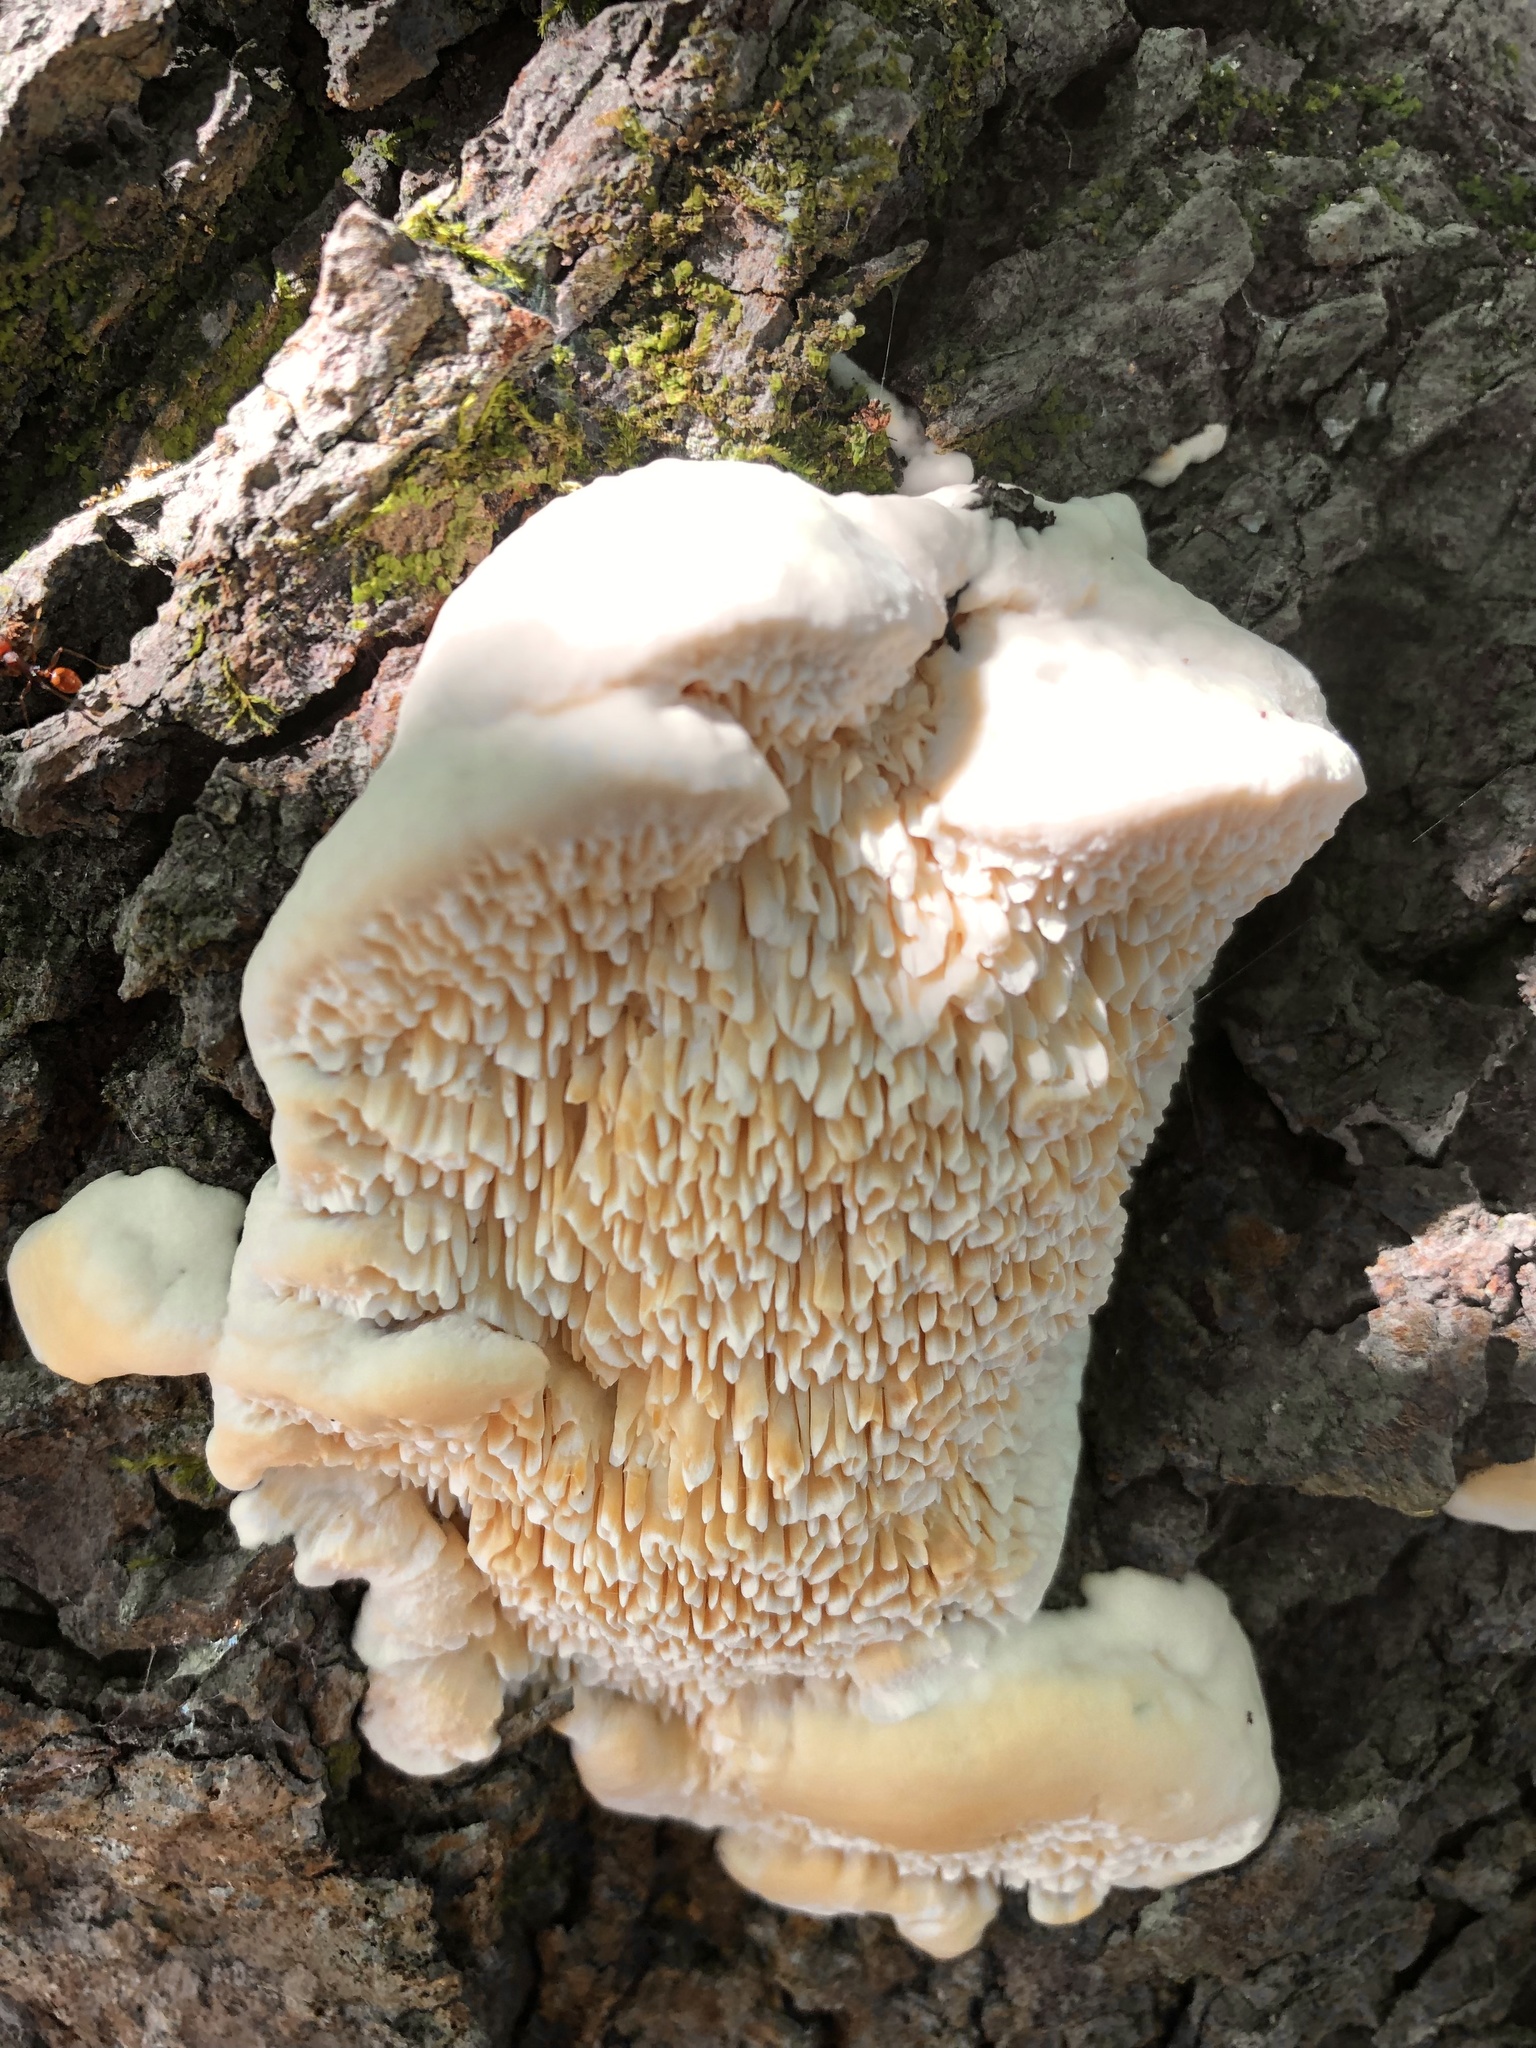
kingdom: Fungi
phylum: Basidiomycota
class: Agaricomycetes
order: Polyporales
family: Meruliaceae
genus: Irpiciporus
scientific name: Irpiciporus pachyodon
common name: Marshmallow polypore
